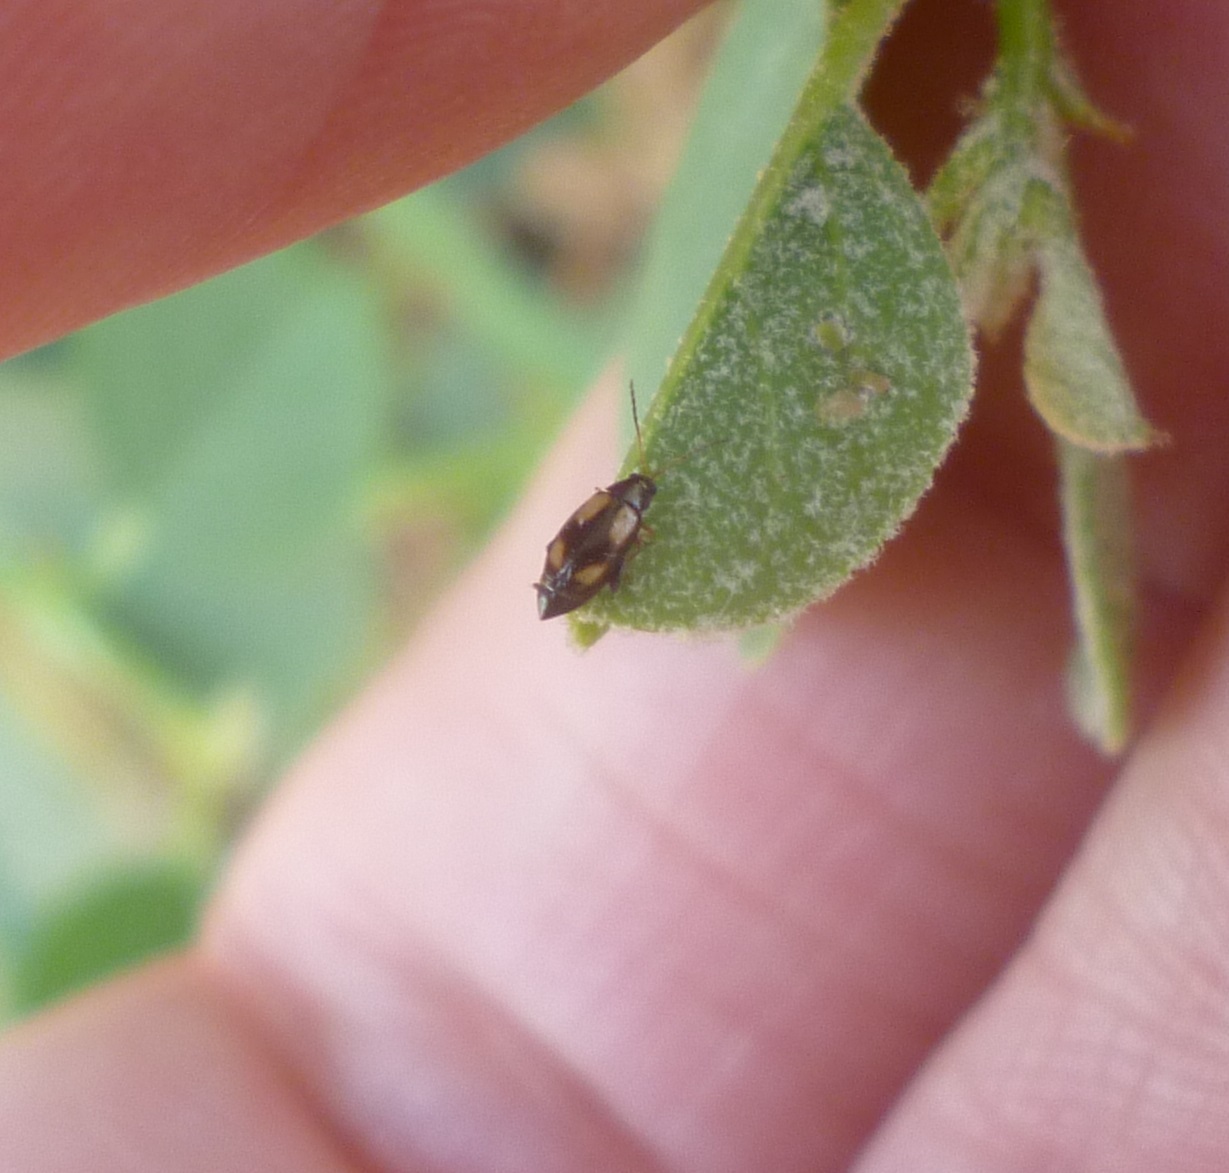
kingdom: Animalia
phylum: Arthropoda
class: Insecta
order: Coleoptera
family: Chrysomelidae
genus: Phyllotreta
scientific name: Phyllotreta lativittata
